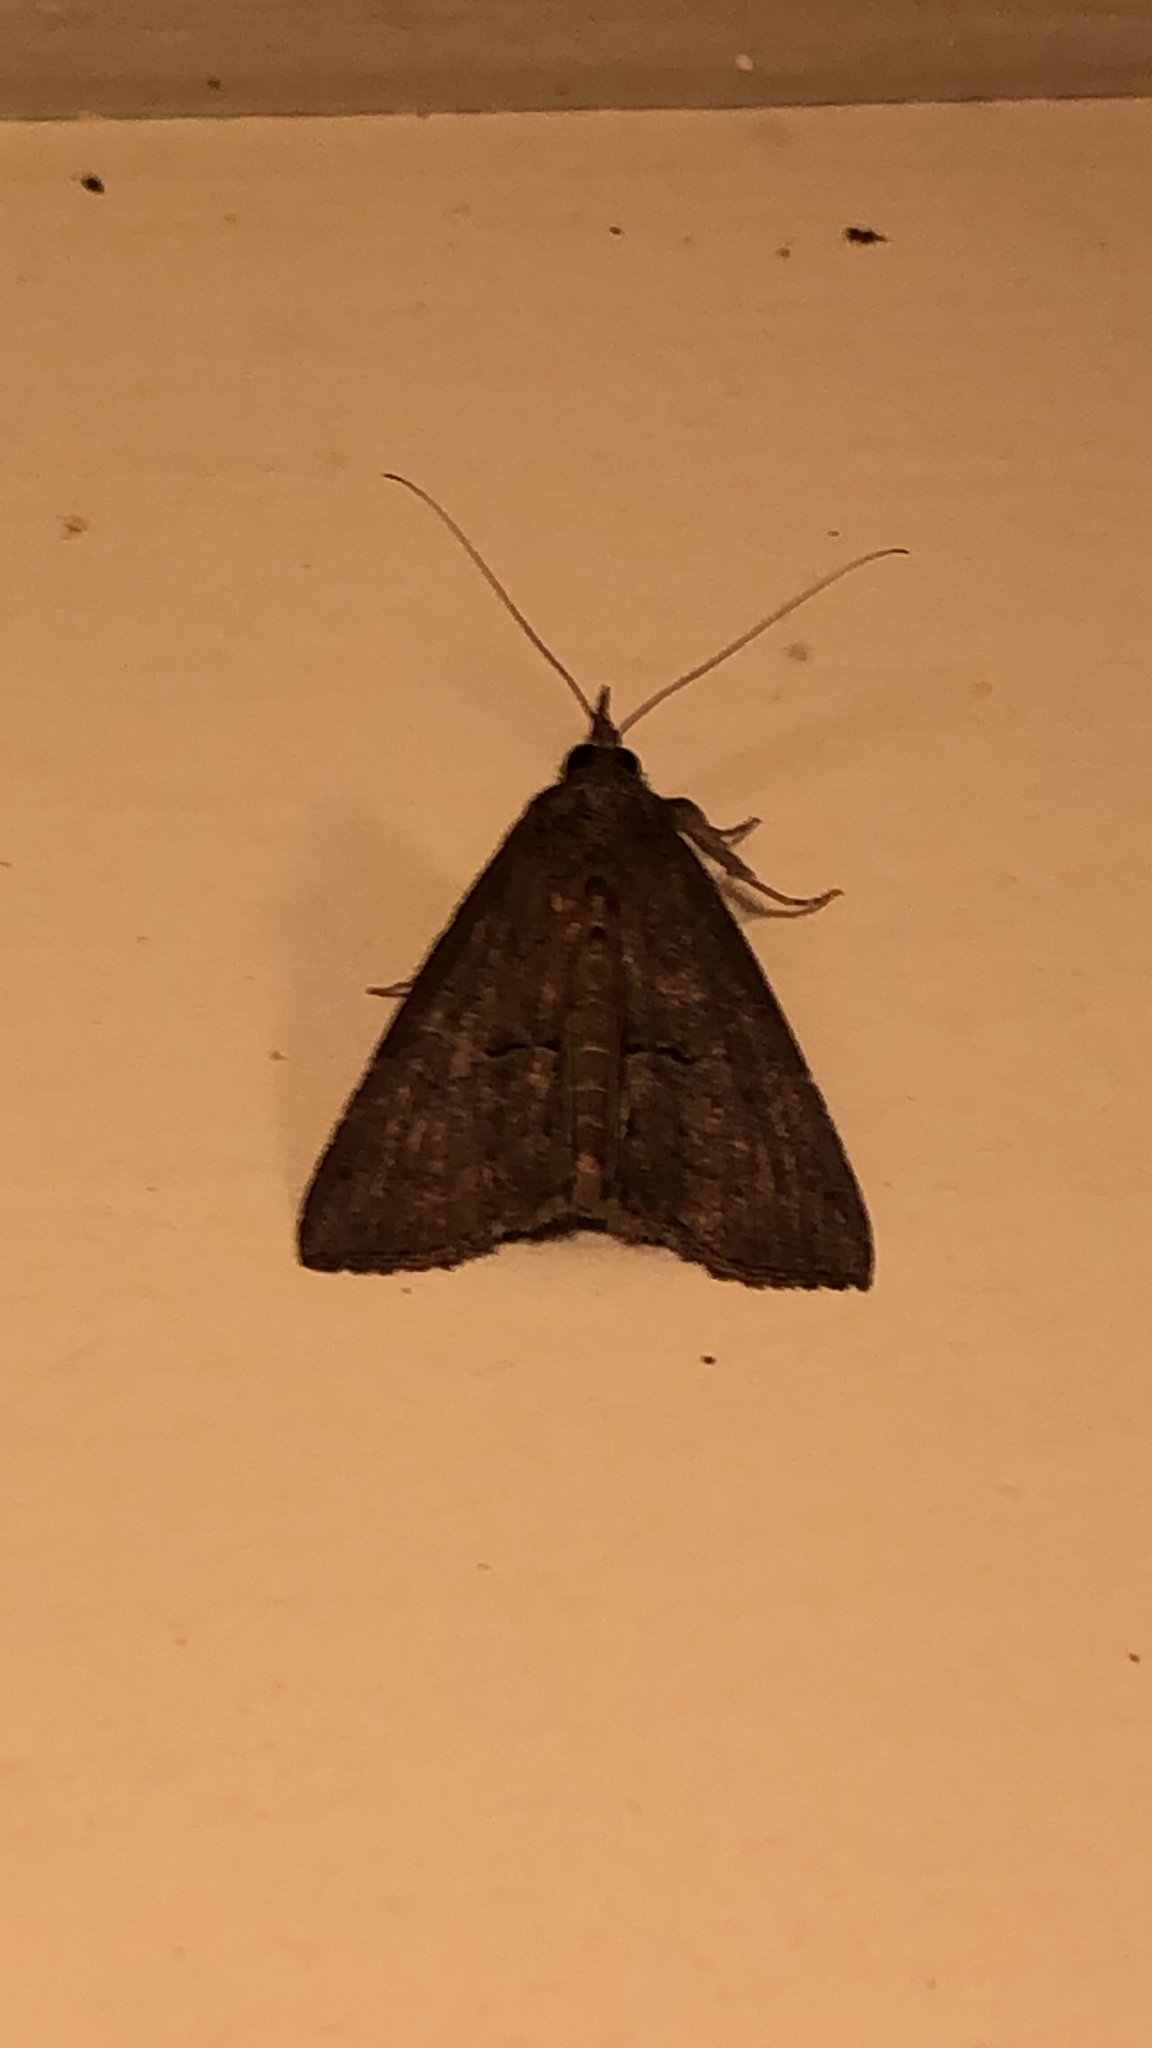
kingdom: Animalia
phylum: Arthropoda
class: Insecta
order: Lepidoptera
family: Erebidae
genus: Hypena
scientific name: Hypena scabra
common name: Green cloverworm
